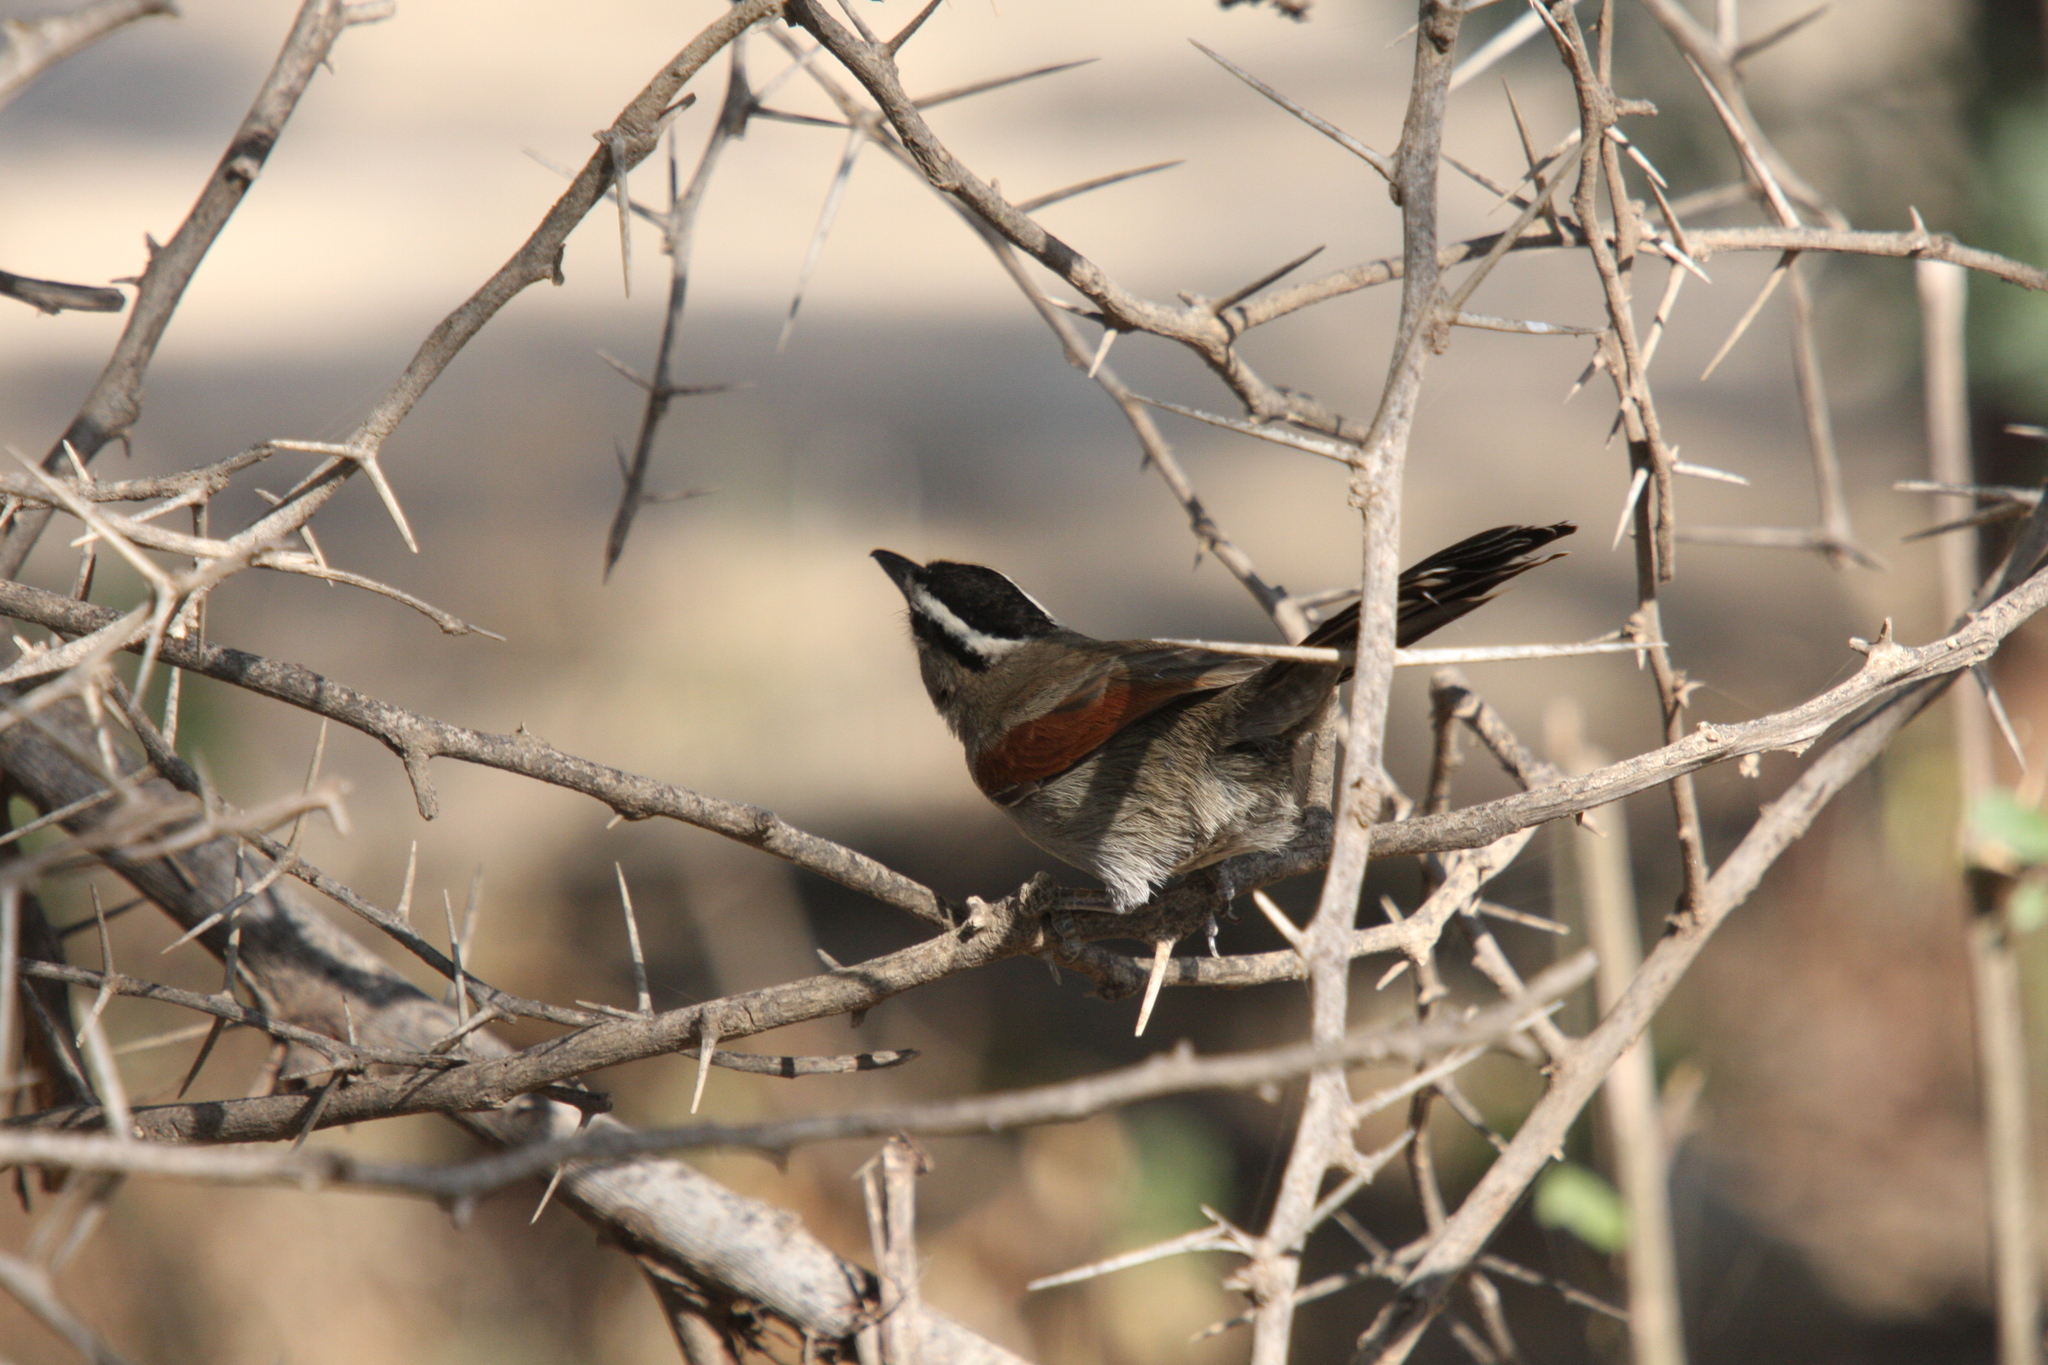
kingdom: Animalia
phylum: Chordata
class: Aves
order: Passeriformes
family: Malaconotidae
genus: Tchagra
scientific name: Tchagra senegalus
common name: Black-crowned tchagra
